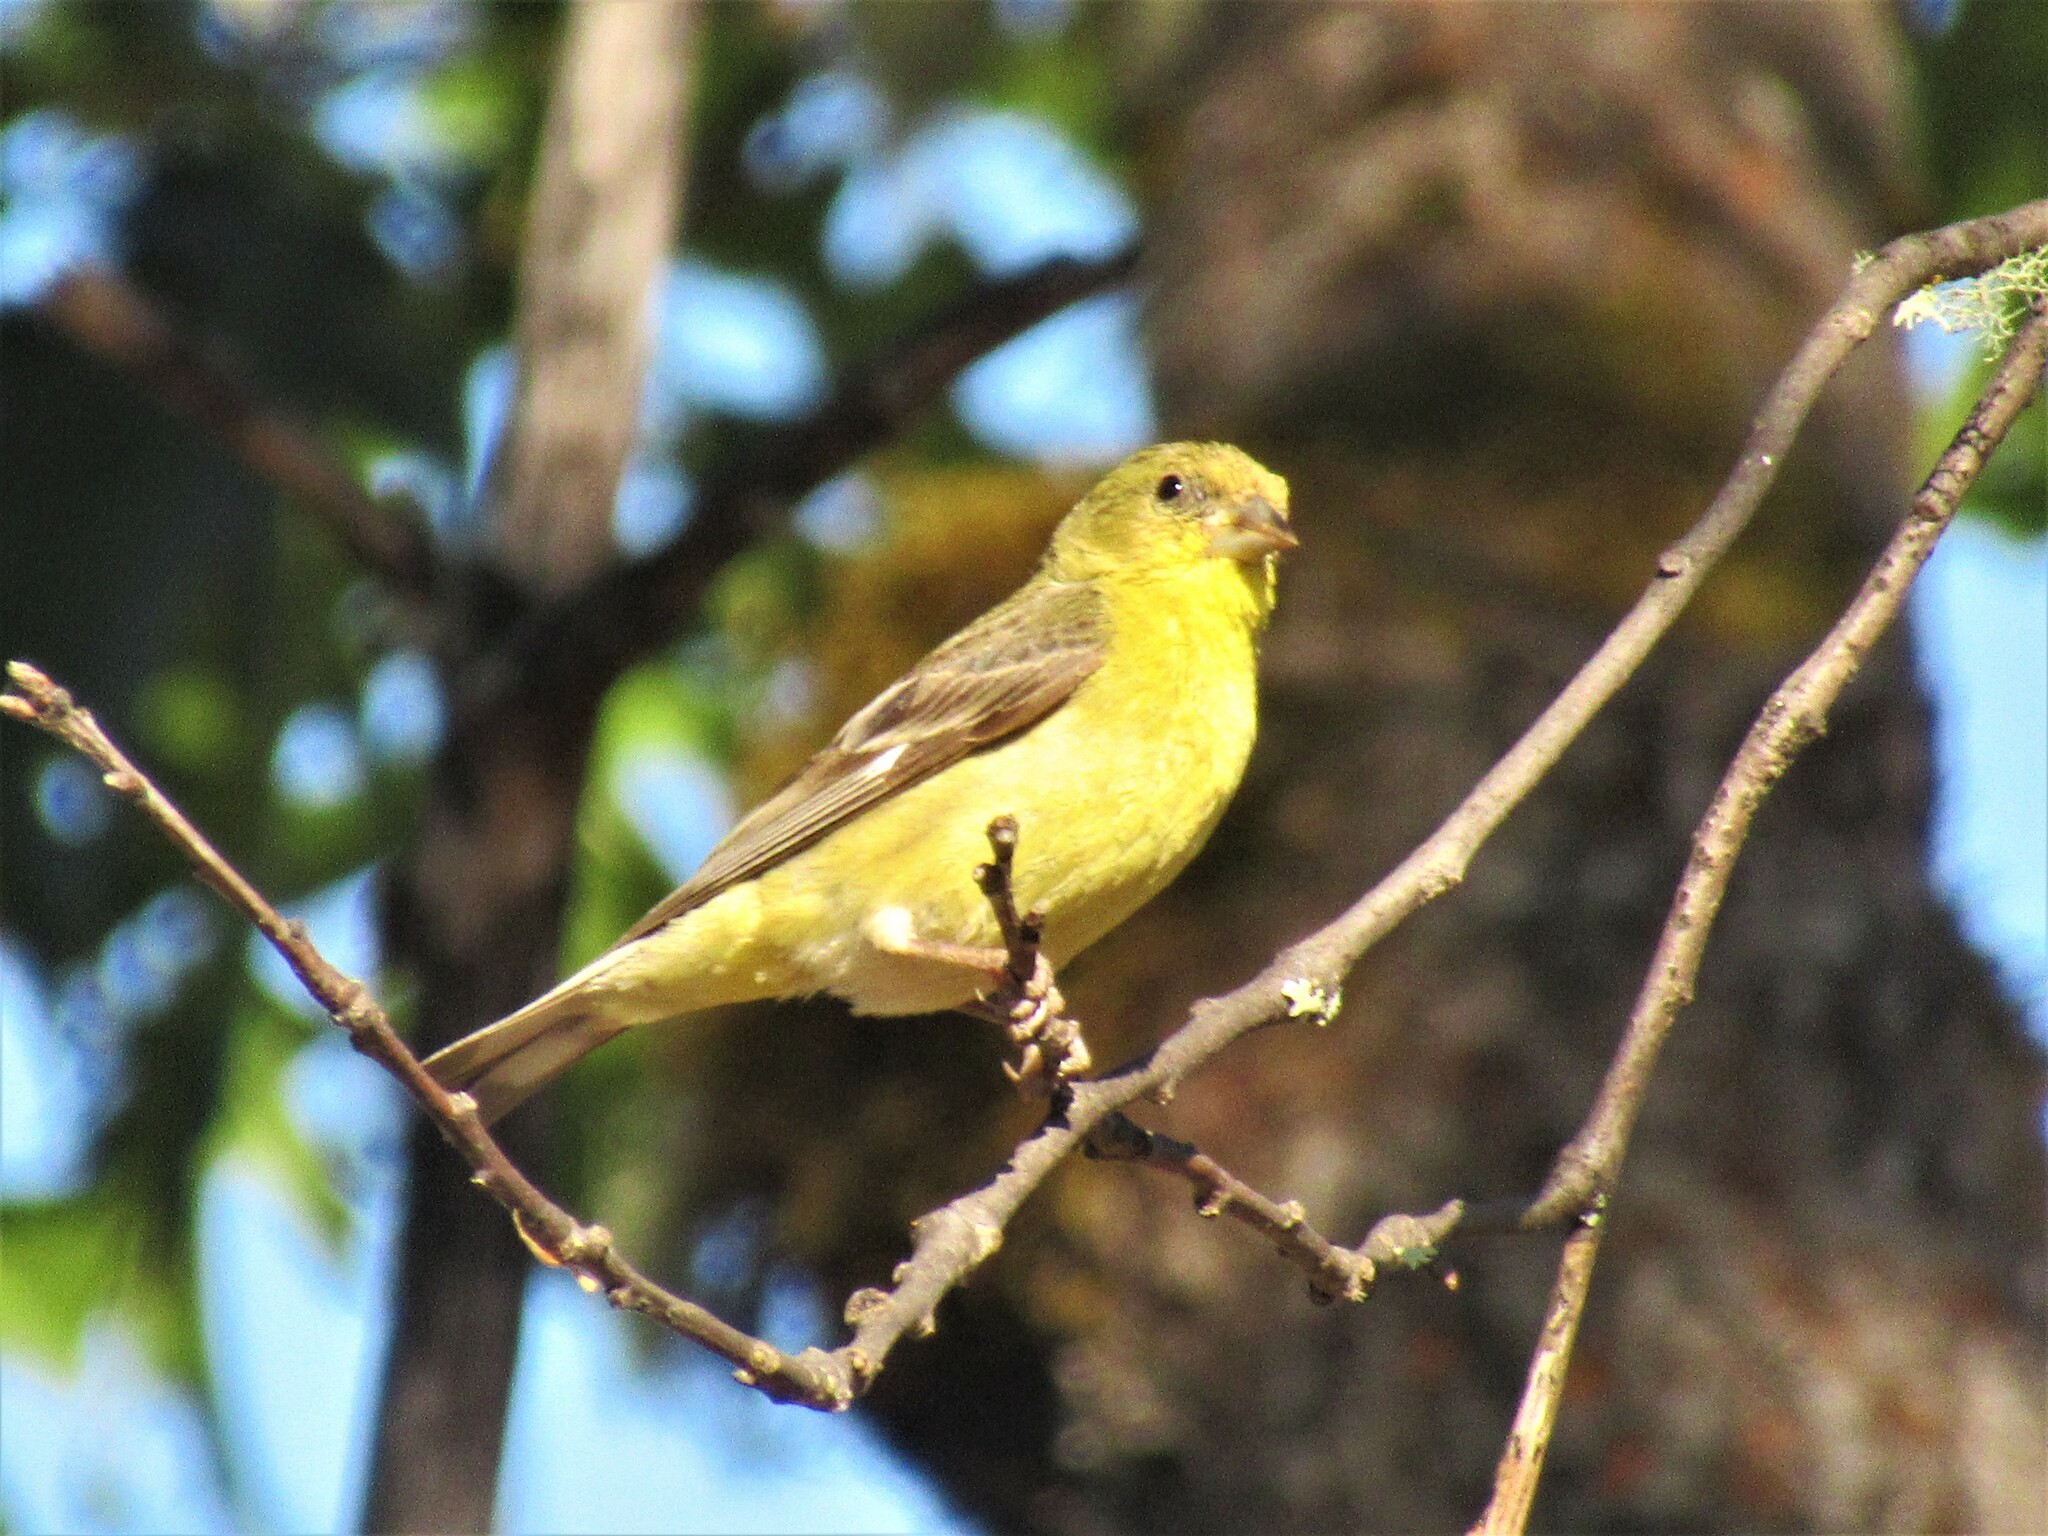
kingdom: Animalia
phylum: Chordata
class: Aves
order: Passeriformes
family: Fringillidae
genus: Spinus
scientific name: Spinus psaltria
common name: Lesser goldfinch
